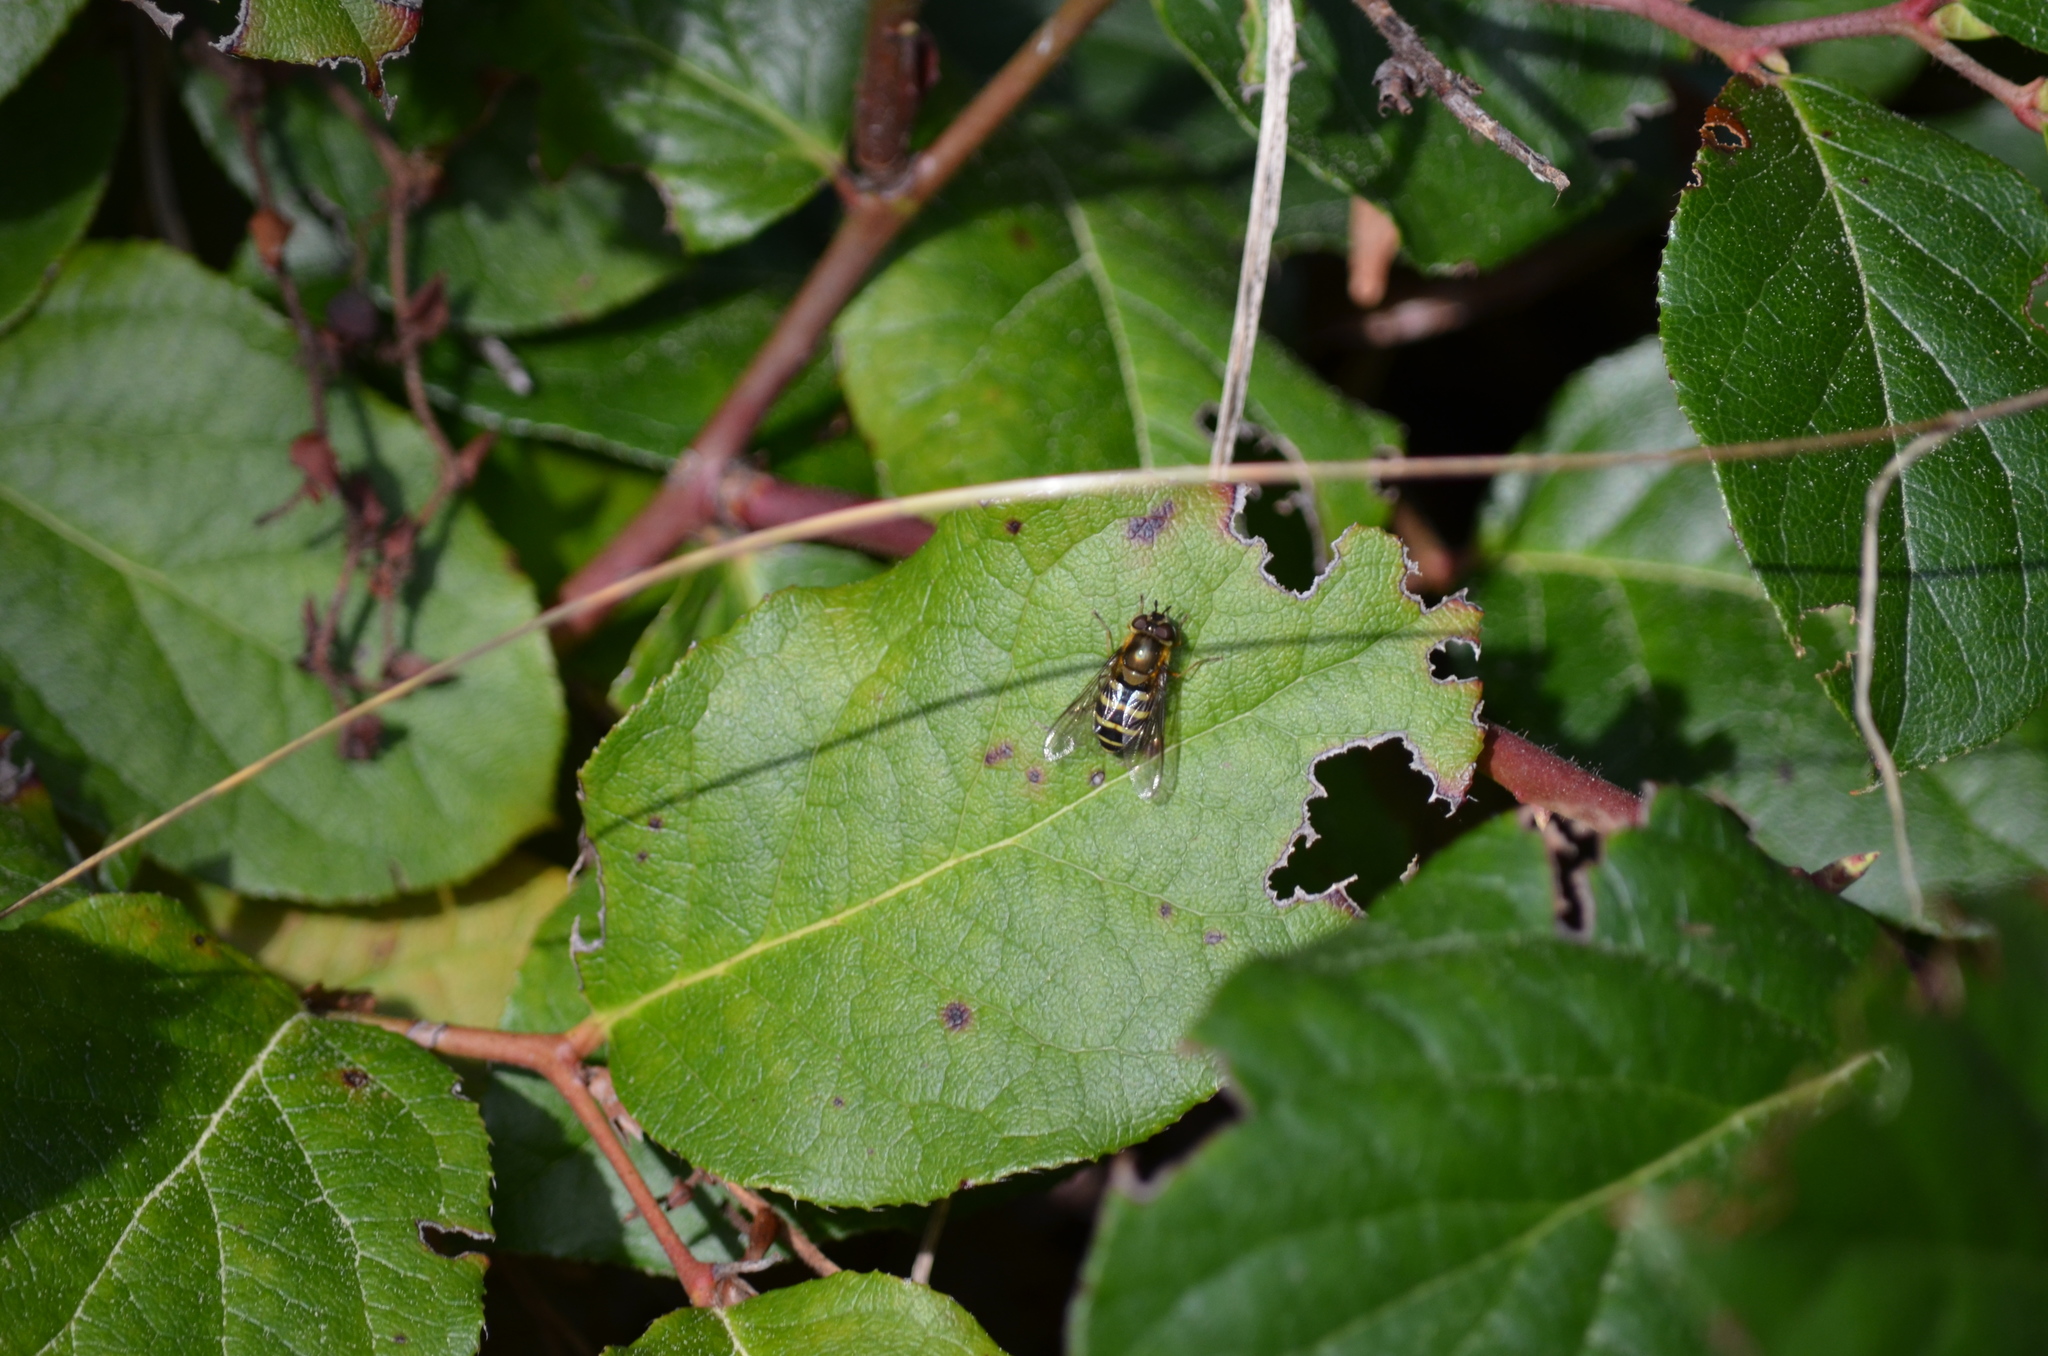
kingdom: Animalia
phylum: Arthropoda
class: Insecta
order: Diptera
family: Syrphidae
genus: Syrphus
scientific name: Syrphus
